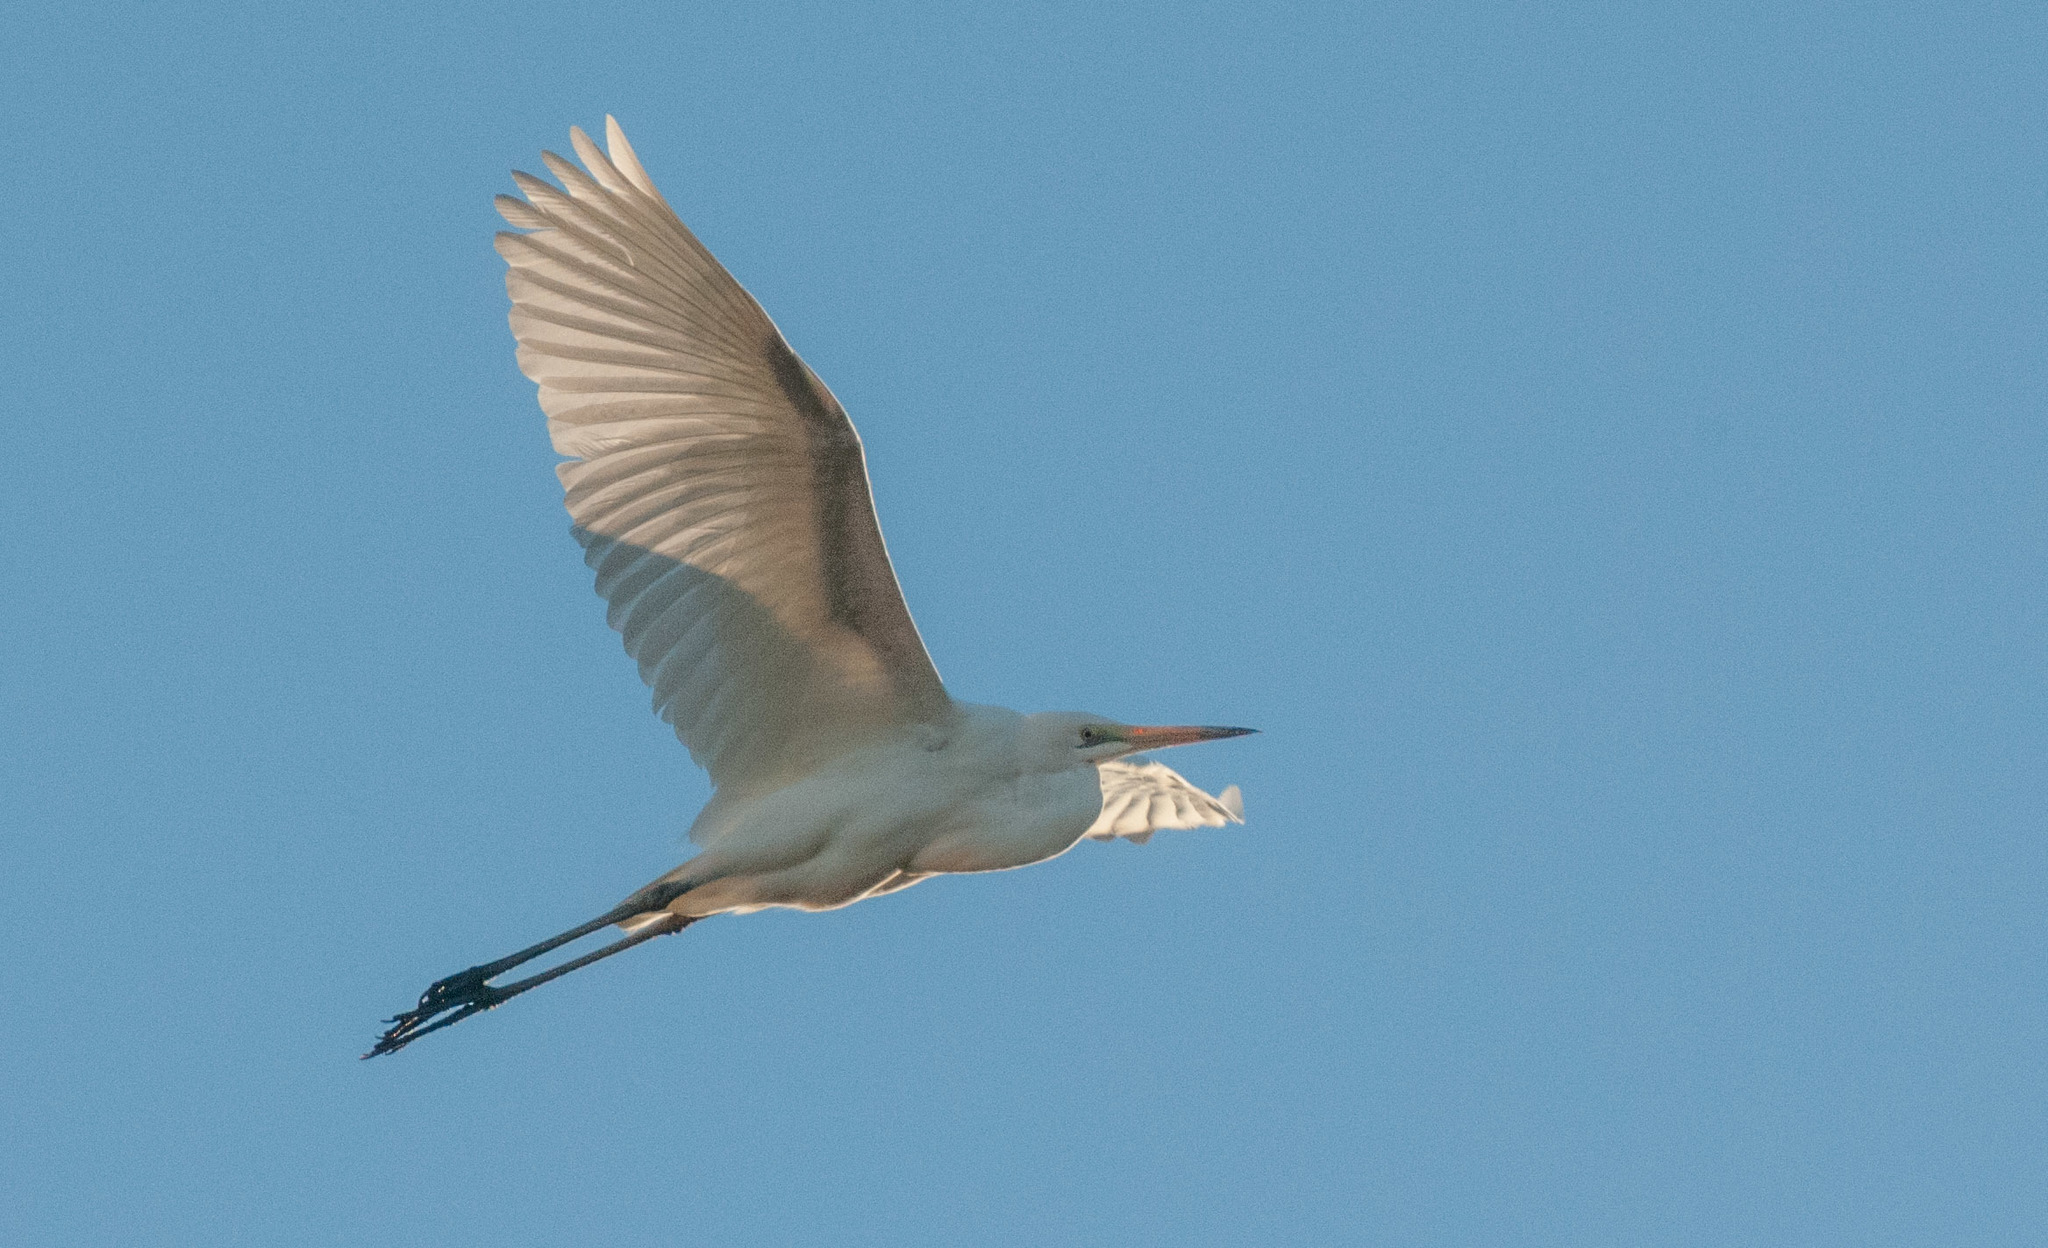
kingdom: Animalia
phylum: Chordata
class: Aves
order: Pelecaniformes
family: Ardeidae
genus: Ardea
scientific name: Ardea alba
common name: Great egret
